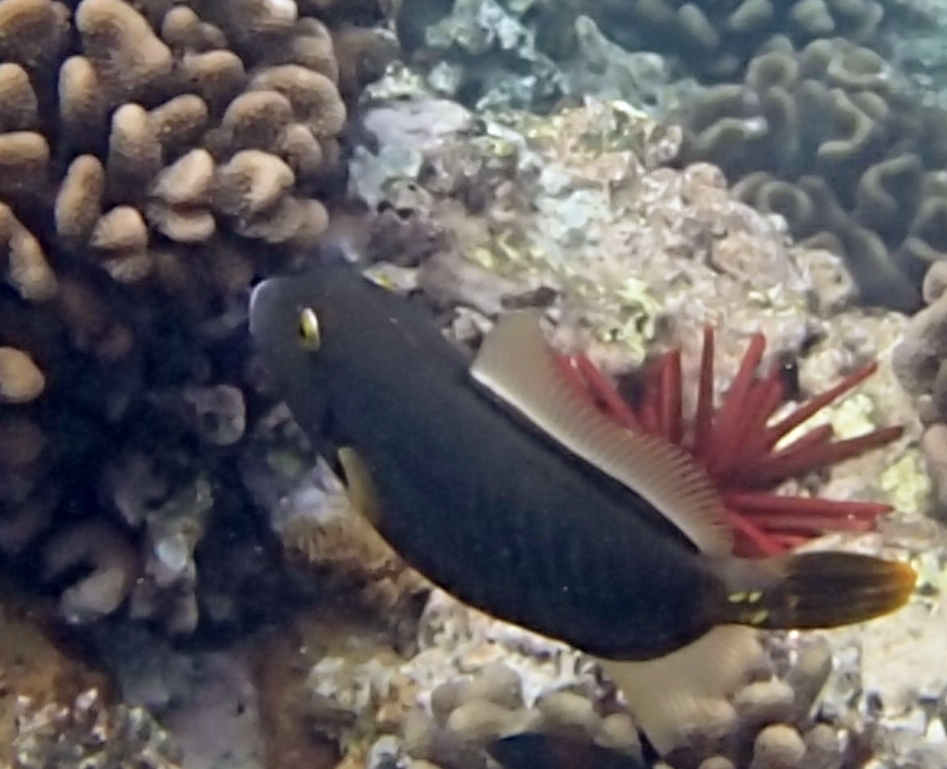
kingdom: Animalia
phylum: Chordata
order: Tetraodontiformes
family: Monacanthidae
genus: Cantherhines
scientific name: Cantherhines dumerilii
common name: Barred filefish
